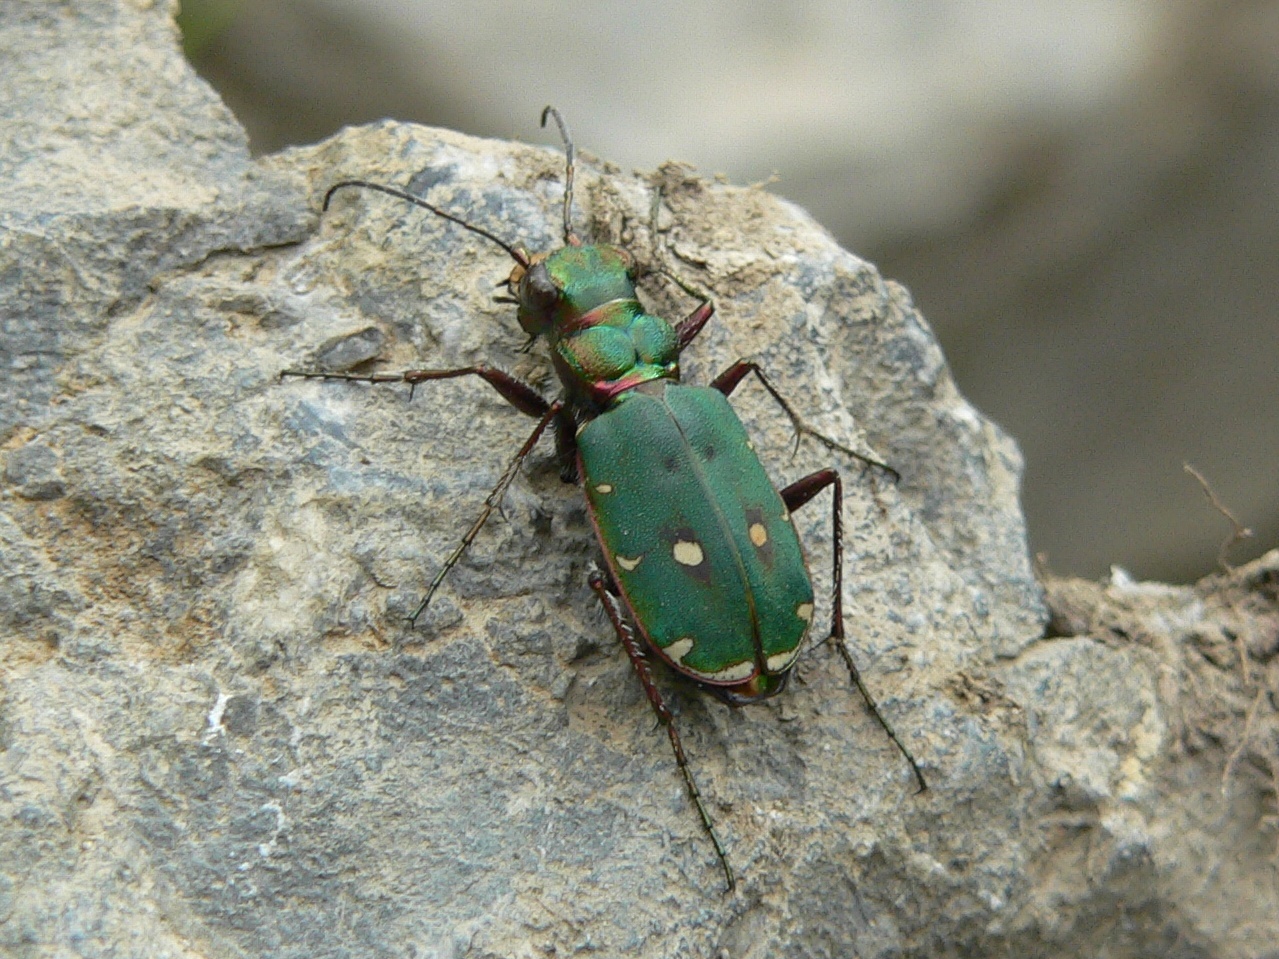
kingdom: Animalia
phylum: Arthropoda
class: Insecta
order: Coleoptera
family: Carabidae
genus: Cicindela
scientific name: Cicindela campestris
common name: Common tiger beetle
